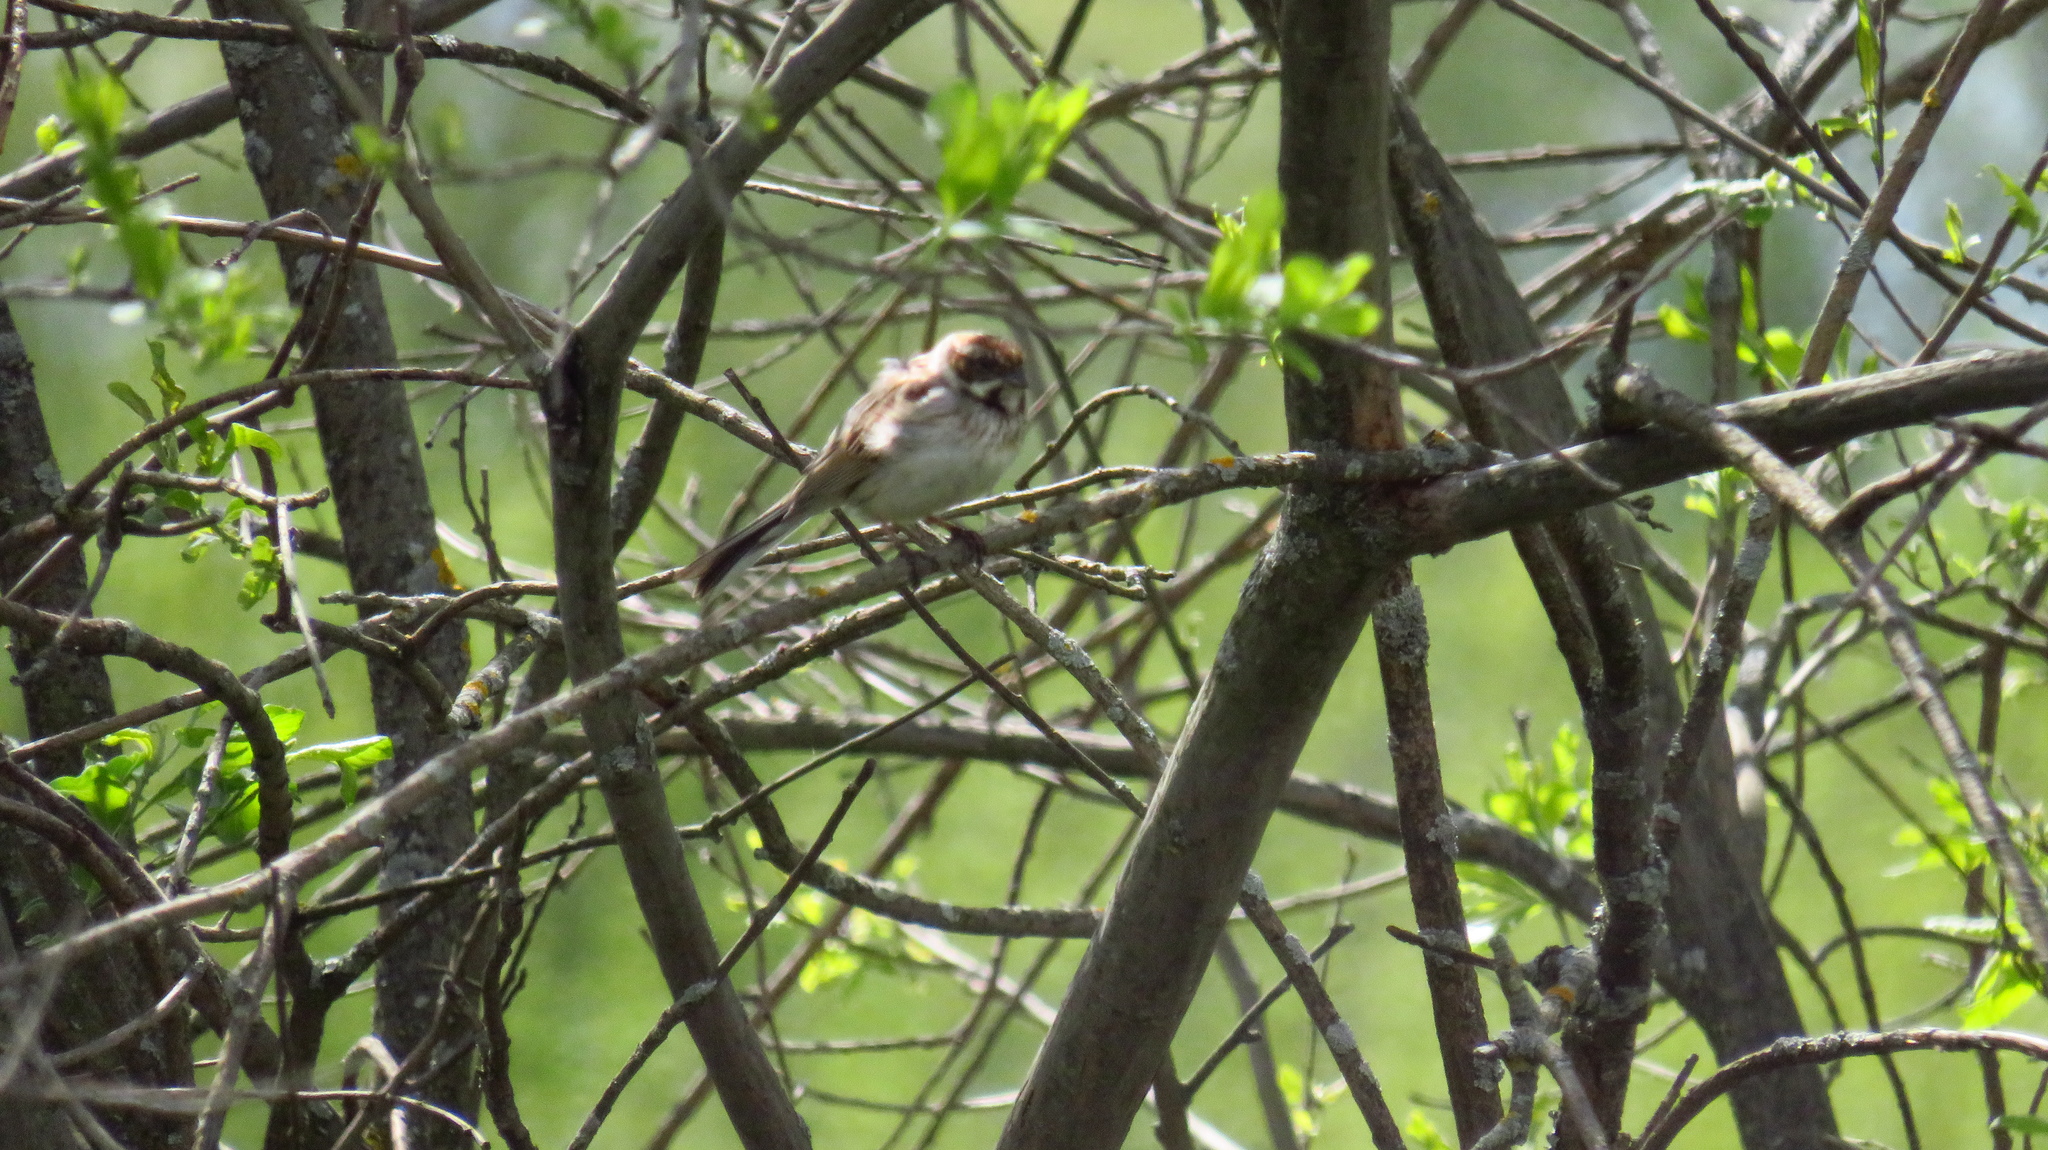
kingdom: Animalia
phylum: Chordata
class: Aves
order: Passeriformes
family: Emberizidae
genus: Emberiza
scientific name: Emberiza schoeniclus
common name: Reed bunting
